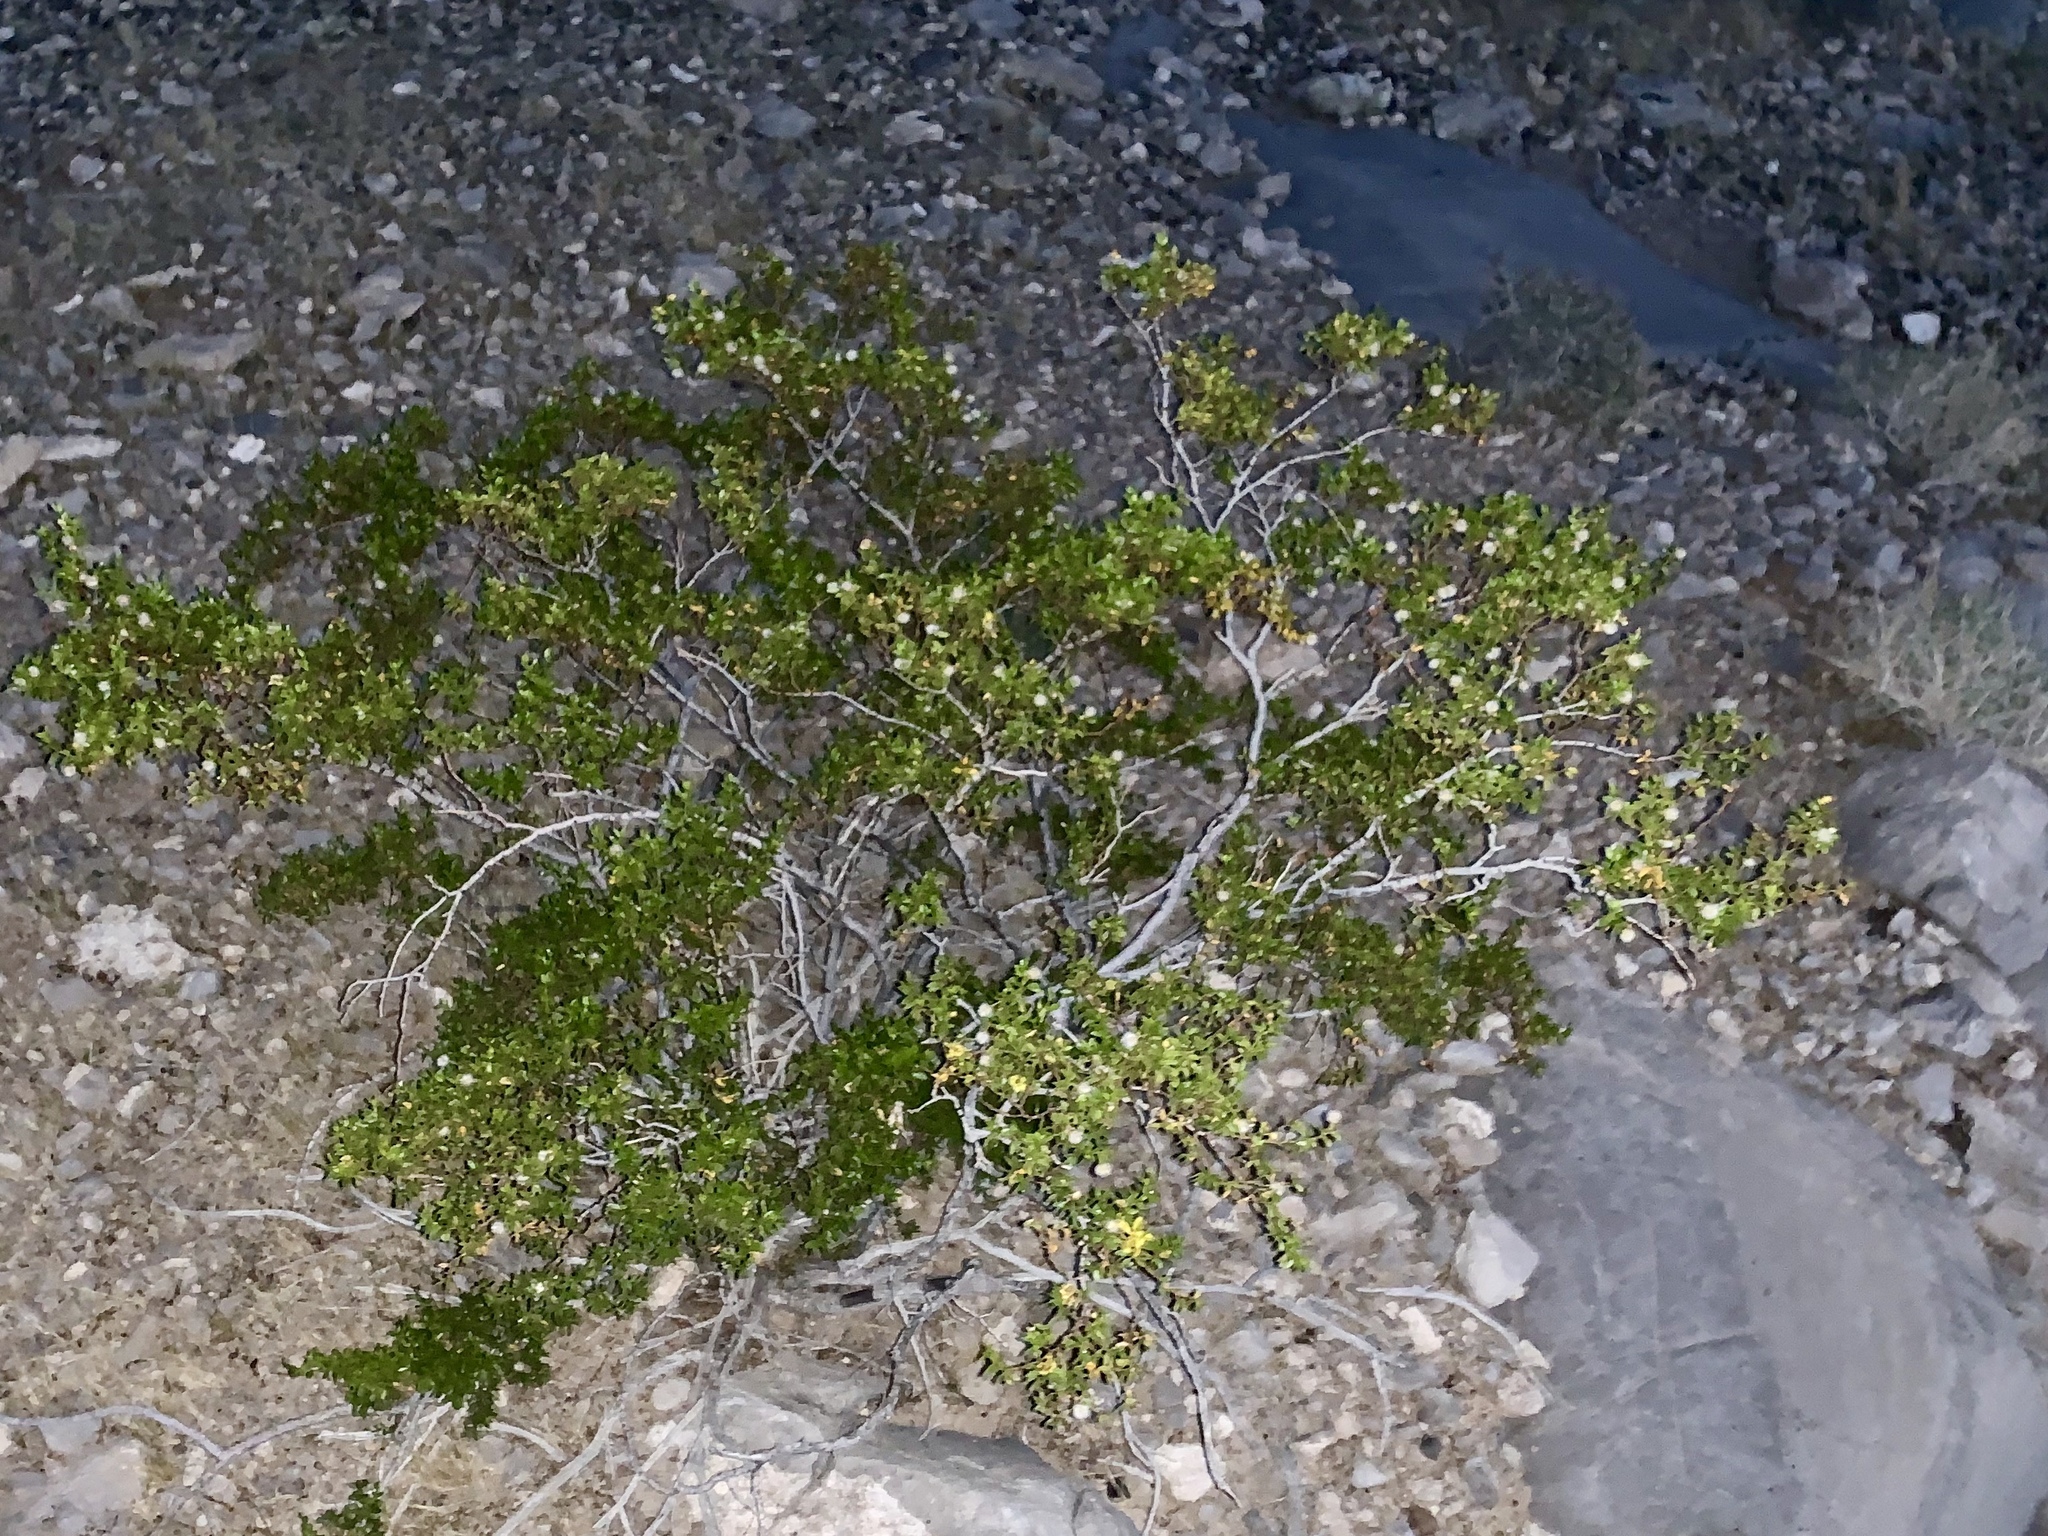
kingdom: Plantae
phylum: Tracheophyta
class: Magnoliopsida
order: Zygophyllales
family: Zygophyllaceae
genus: Larrea
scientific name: Larrea tridentata
